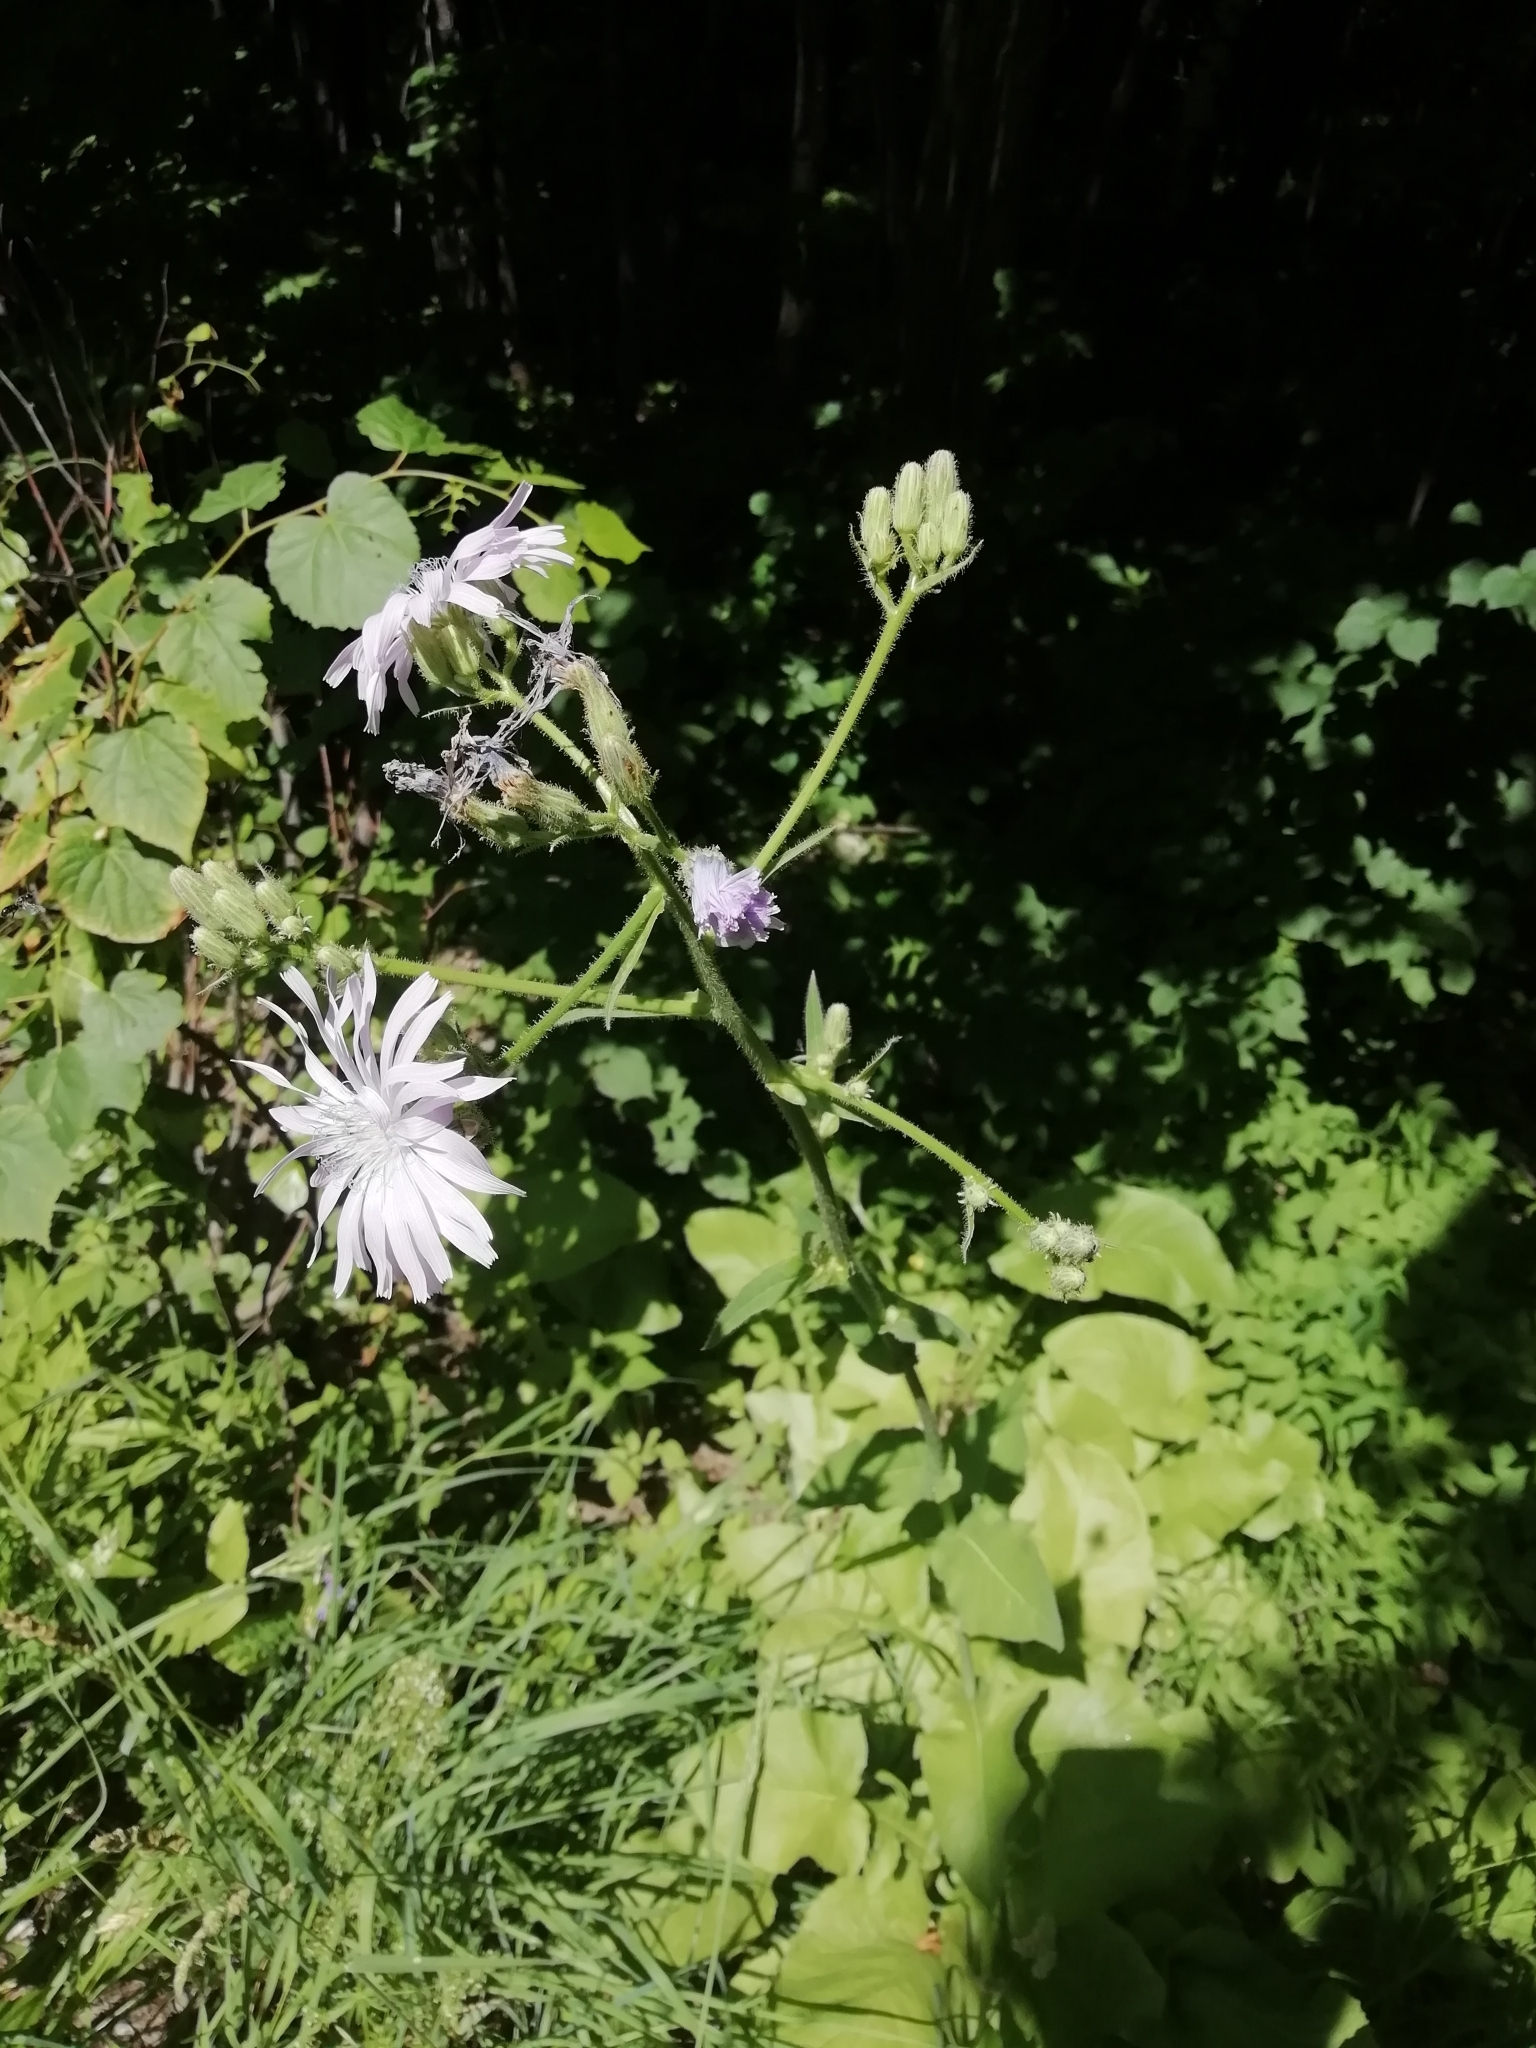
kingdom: Plantae
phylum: Tracheophyta
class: Magnoliopsida
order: Asterales
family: Asteraceae
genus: Lactuca
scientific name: Lactuca macrophylla
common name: Common blue-sow-thistle
